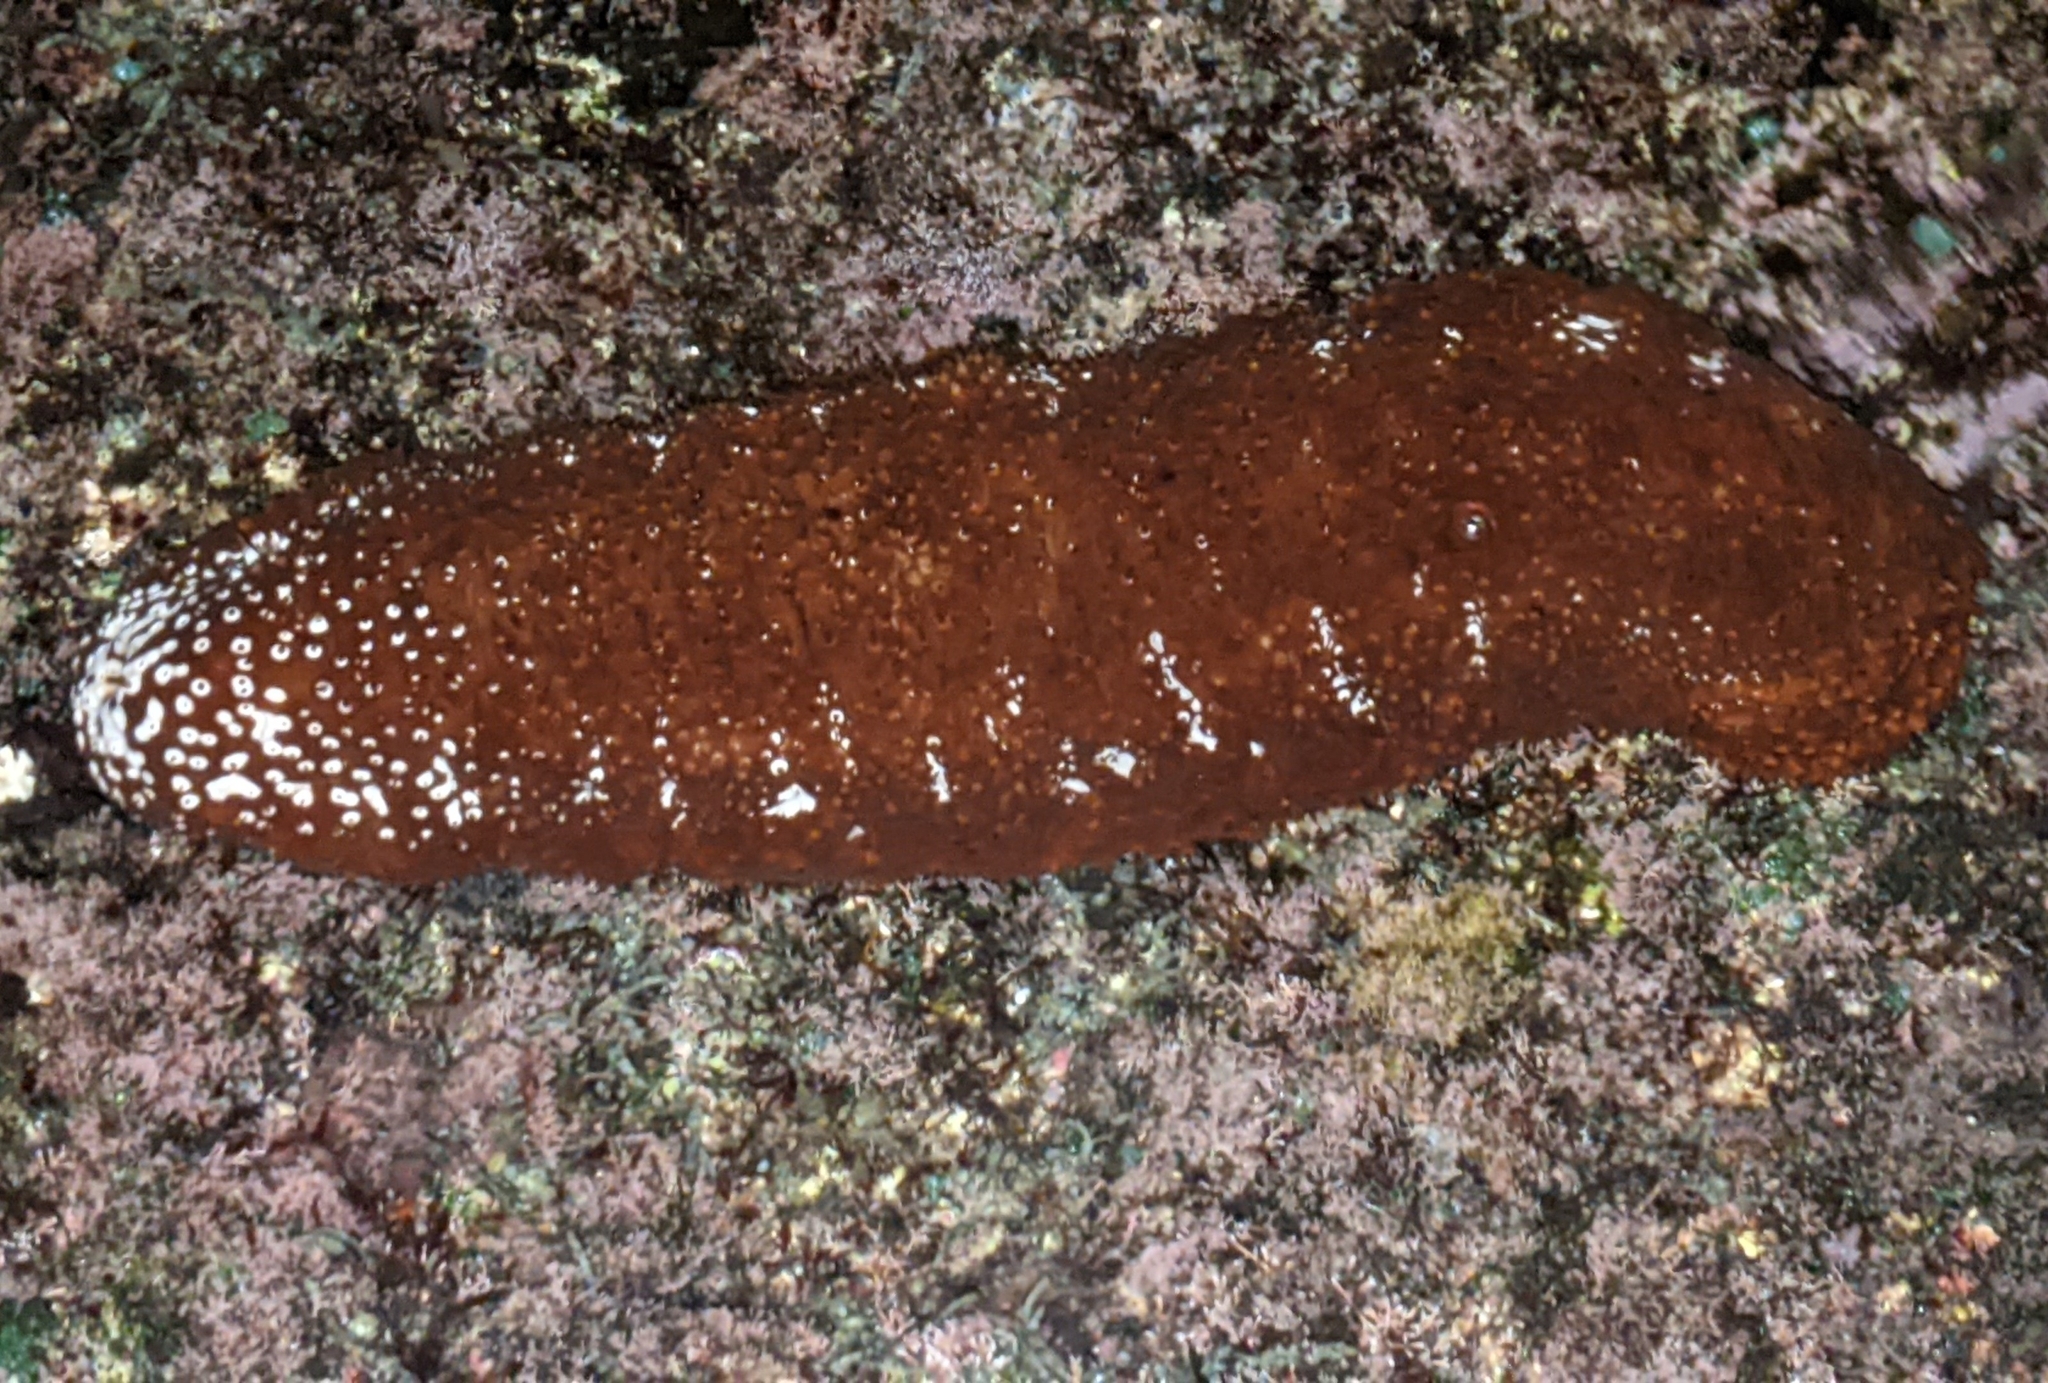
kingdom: Animalia
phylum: Echinodermata
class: Holothuroidea
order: Holothuriida
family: Holothuriidae
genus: Actinopyga
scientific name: Actinopyga varians
